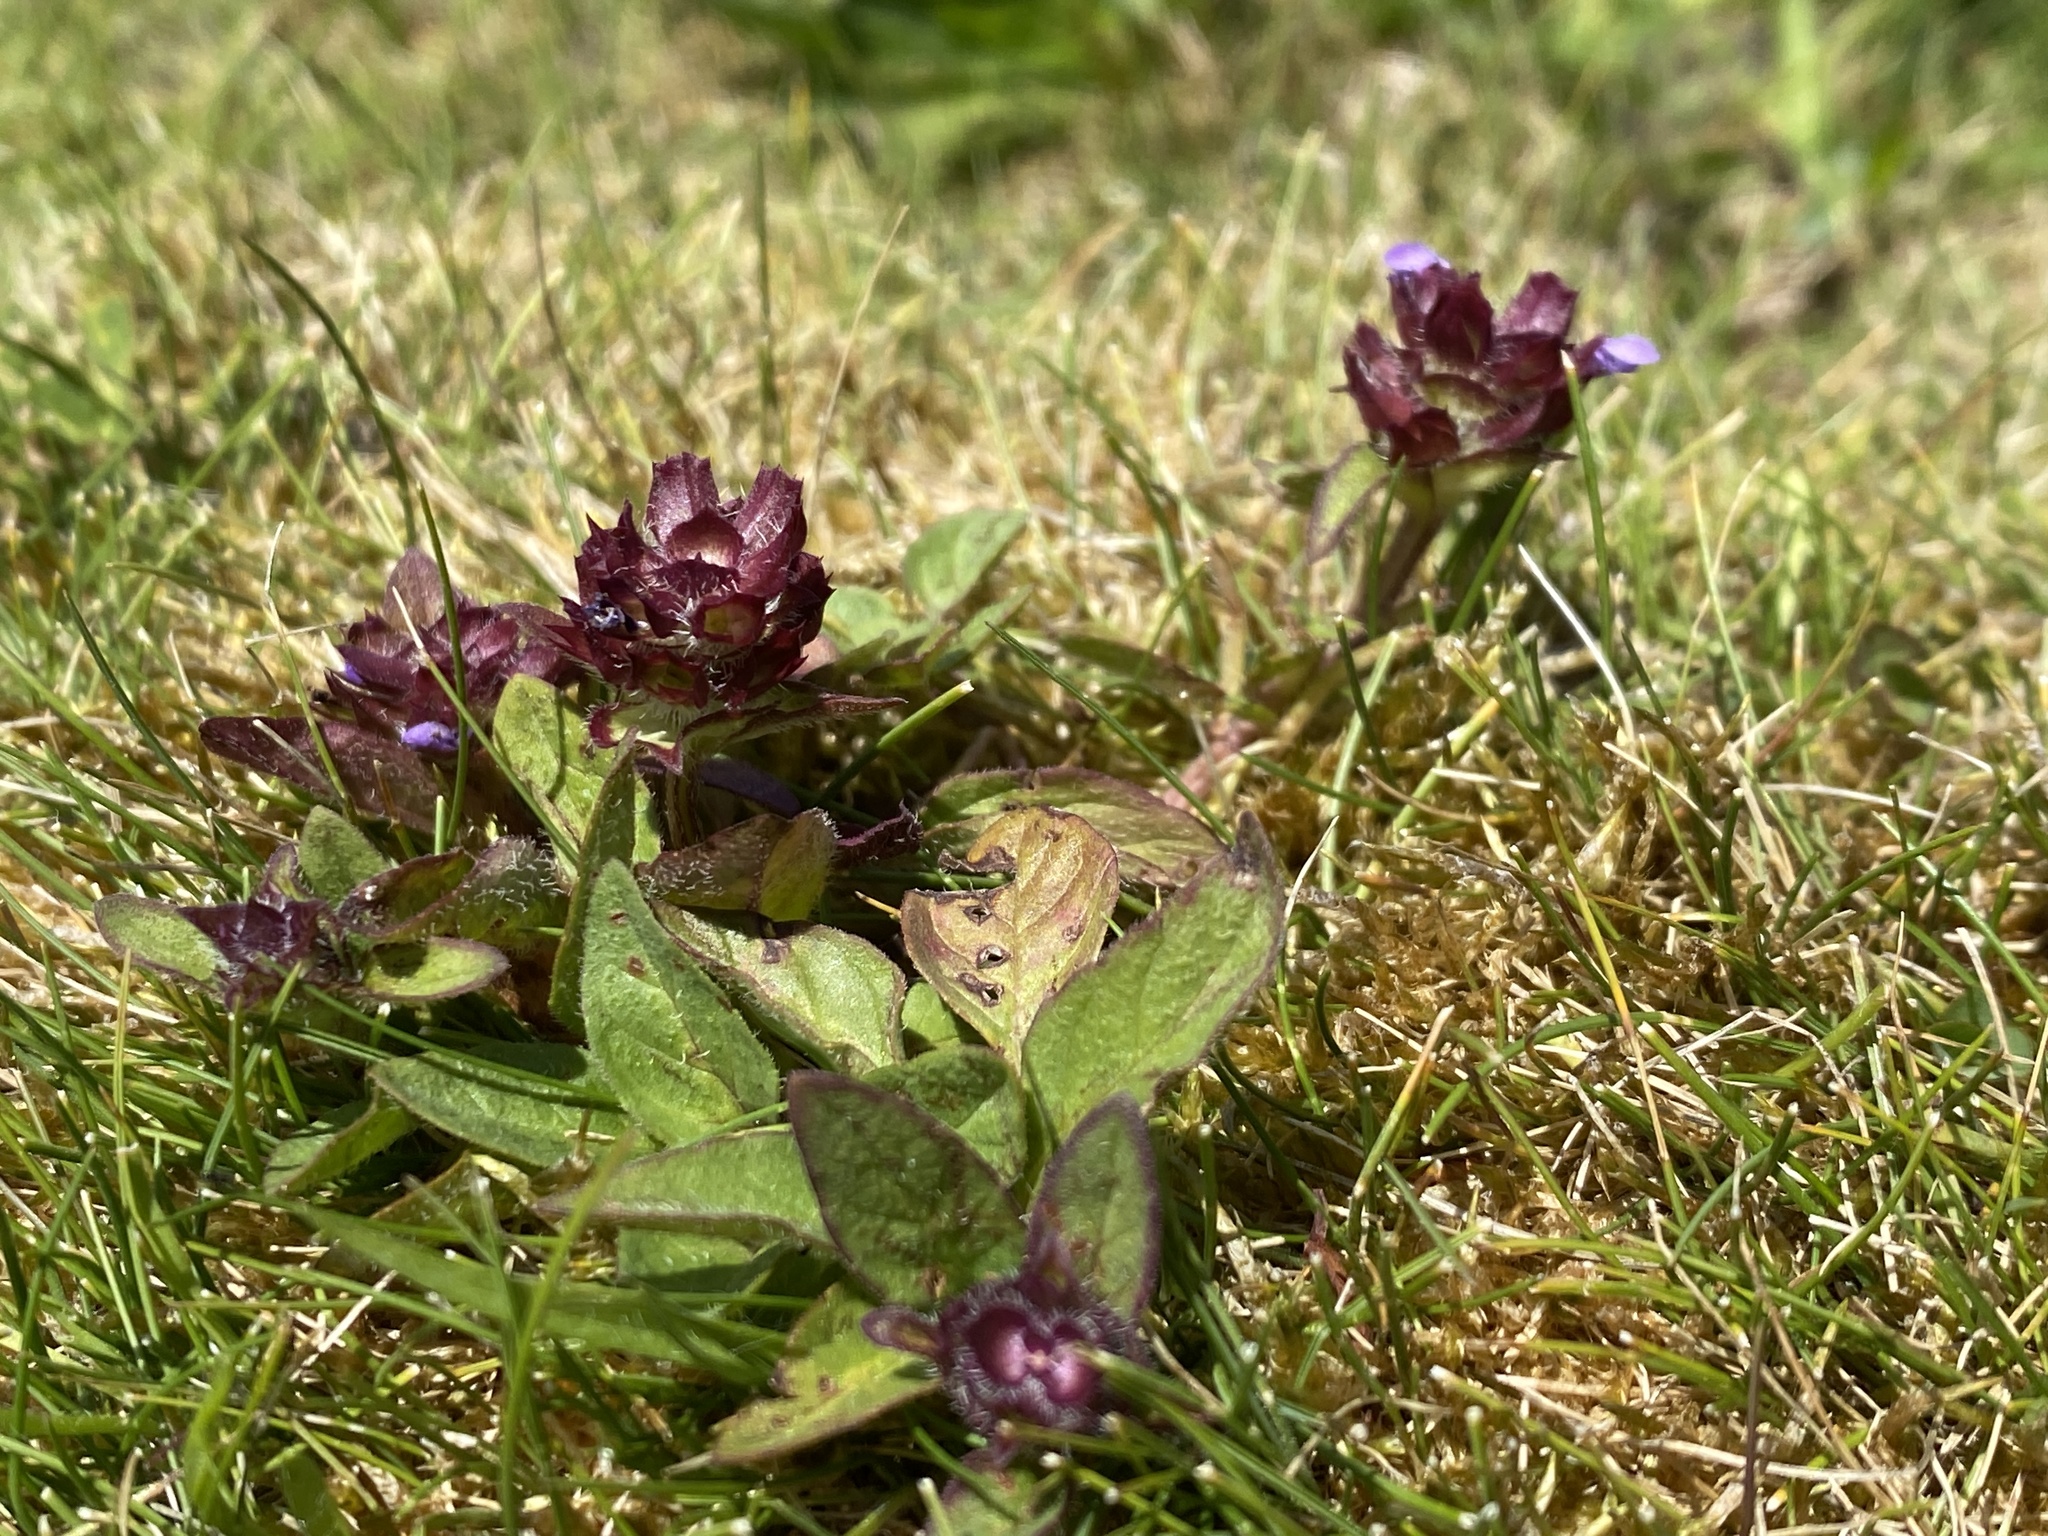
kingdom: Plantae
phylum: Tracheophyta
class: Magnoliopsida
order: Lamiales
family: Lamiaceae
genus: Prunella
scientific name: Prunella vulgaris
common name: Heal-all
